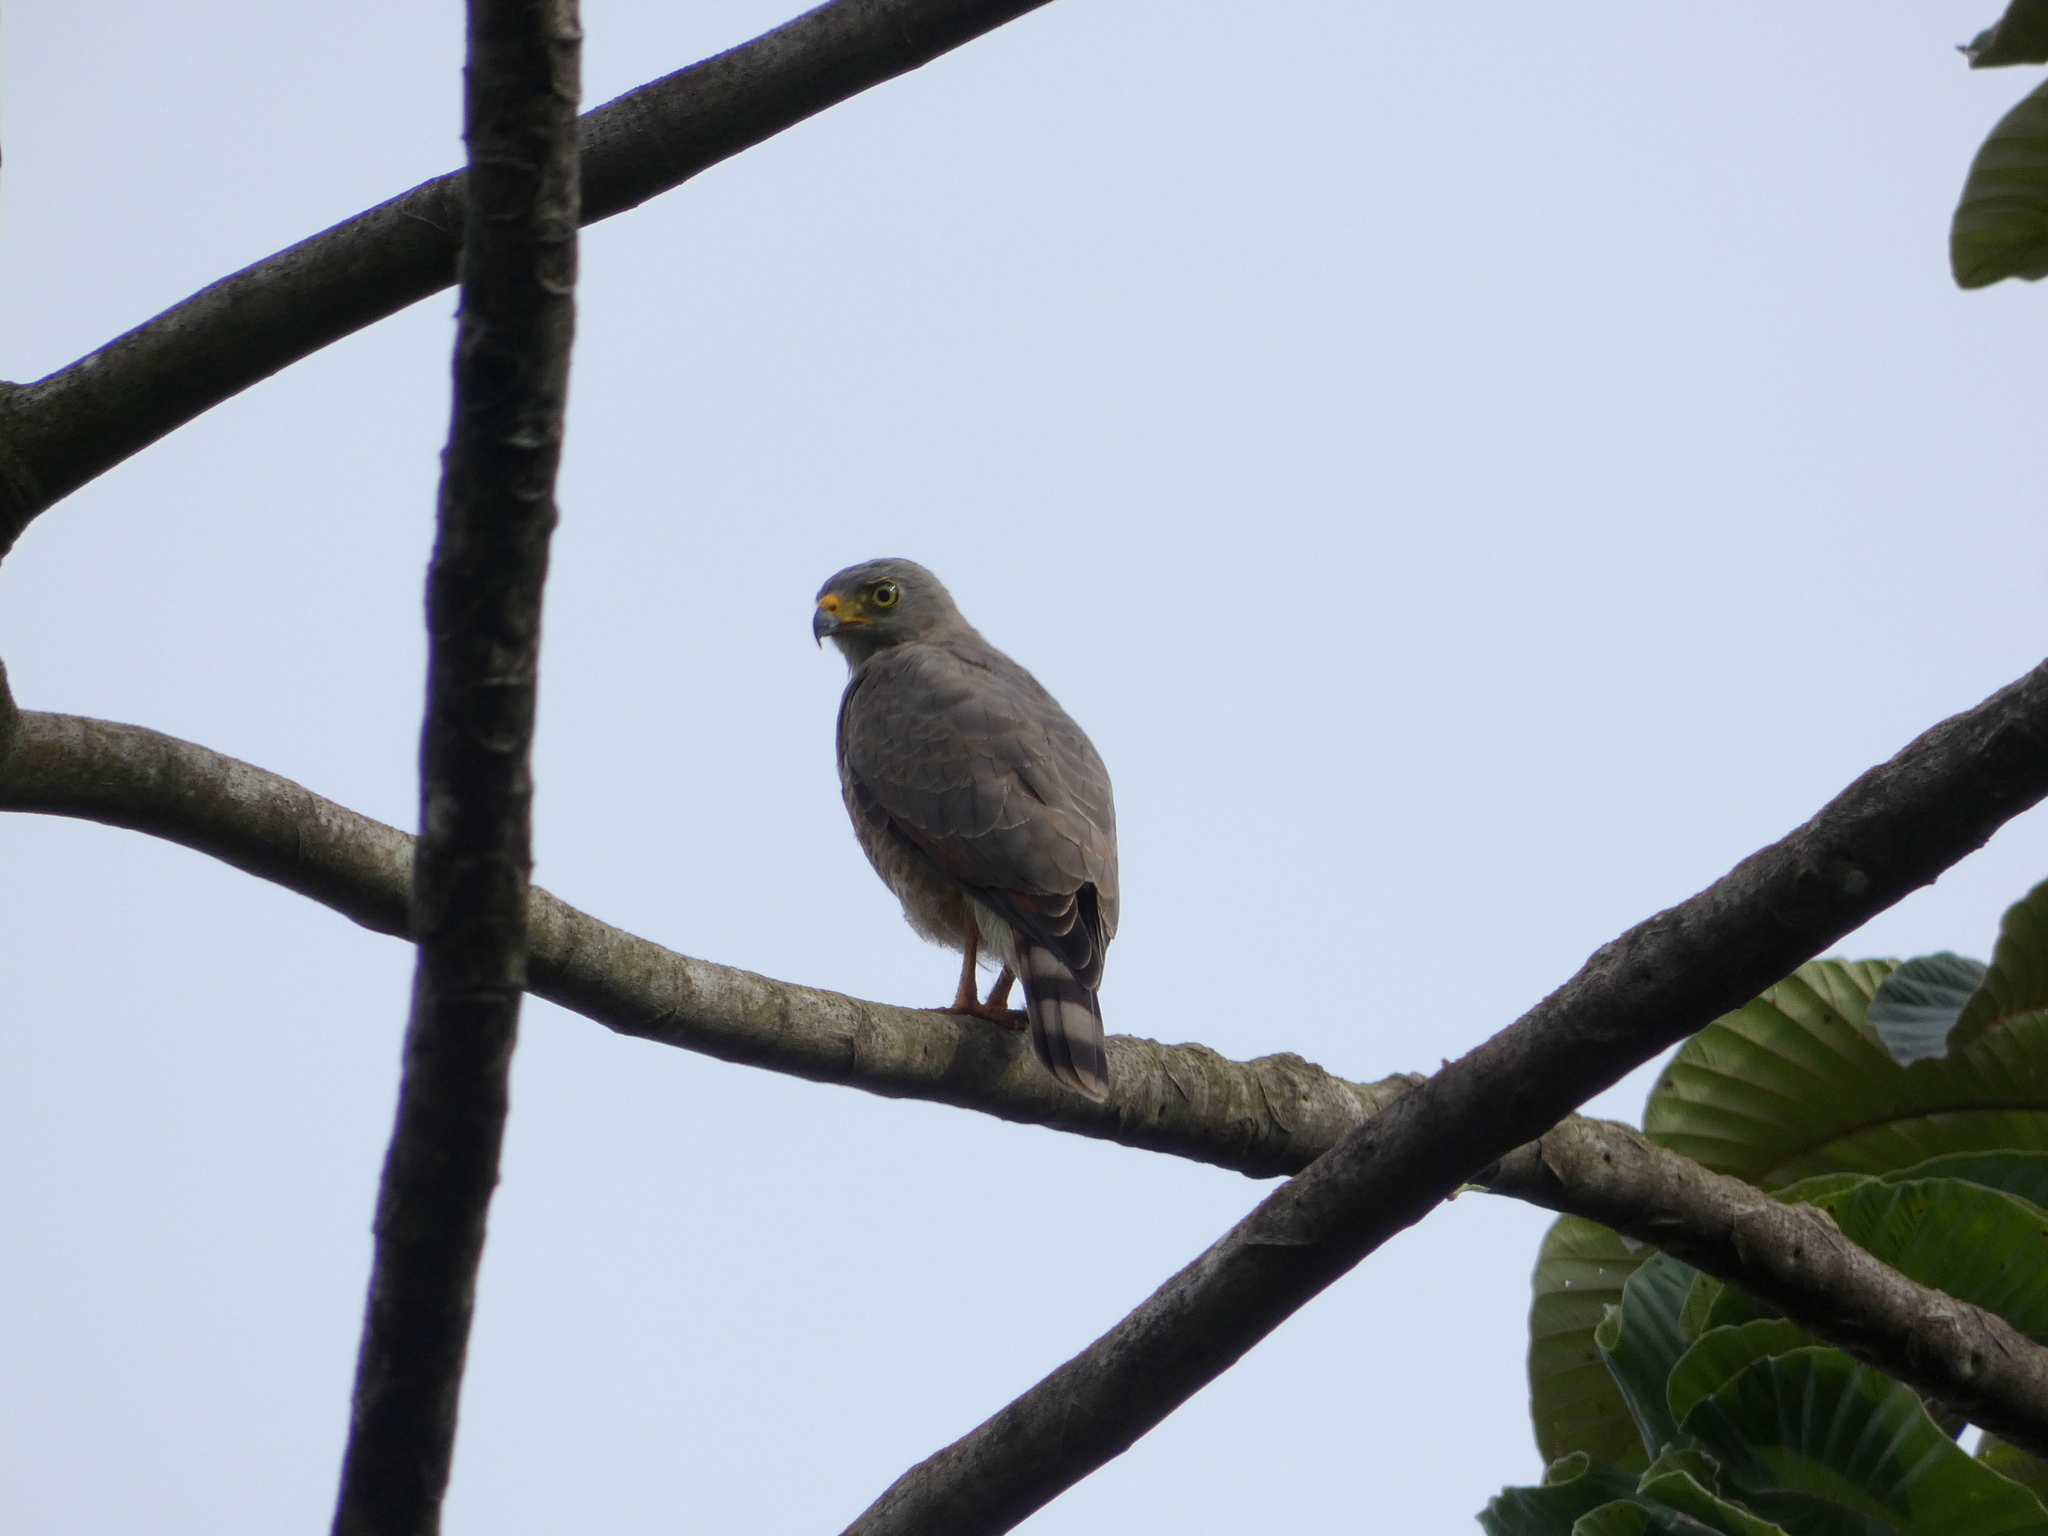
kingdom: Animalia
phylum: Chordata
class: Aves
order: Accipitriformes
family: Accipitridae
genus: Rupornis
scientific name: Rupornis magnirostris
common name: Roadside hawk
